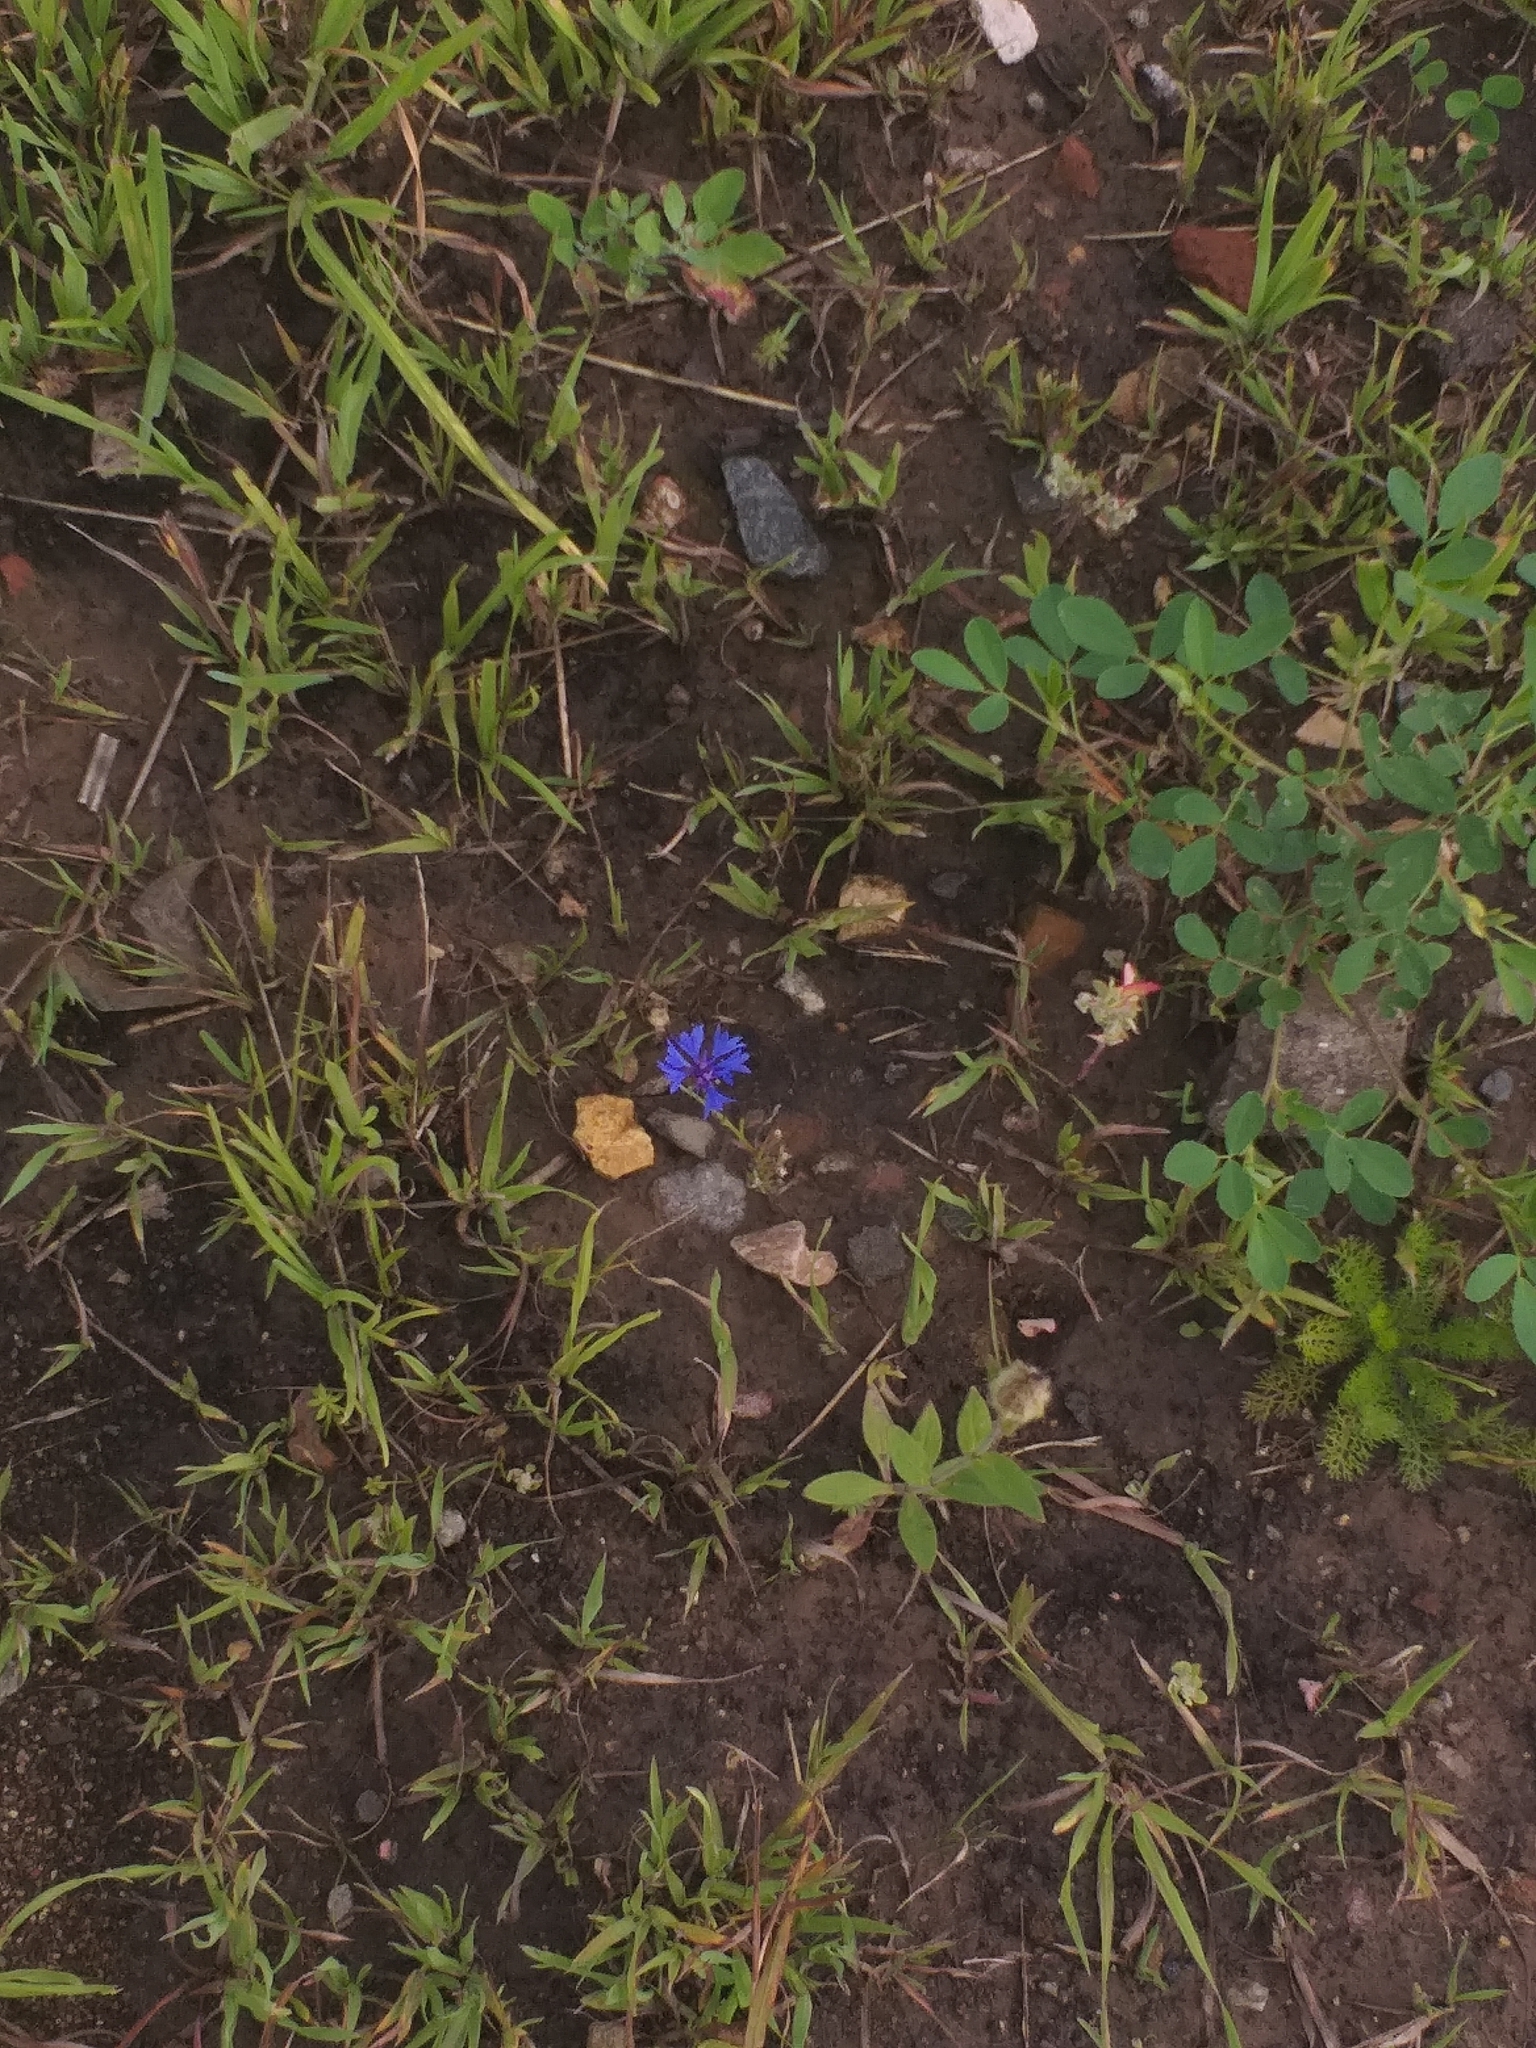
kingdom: Plantae
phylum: Tracheophyta
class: Magnoliopsida
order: Asterales
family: Asteraceae
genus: Centaurea
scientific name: Centaurea cyanus
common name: Cornflower
